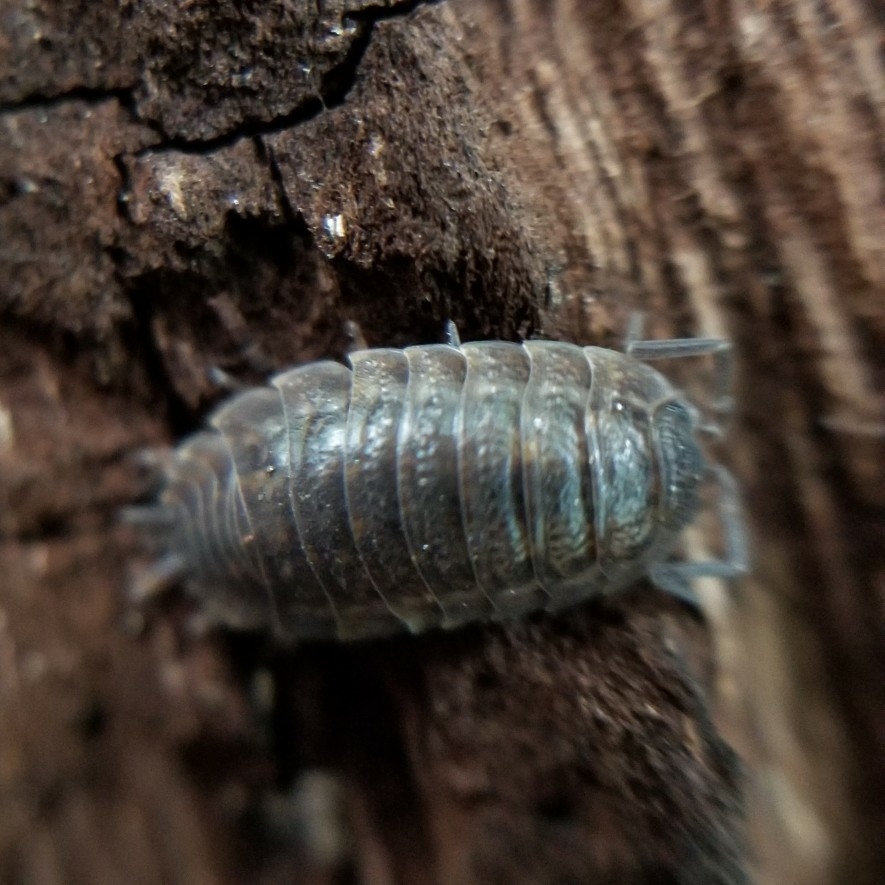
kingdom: Animalia
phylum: Arthropoda
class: Malacostraca
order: Isopoda
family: Trachelipodidae
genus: Trachelipus
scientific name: Trachelipus rathkii
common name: Isopod
